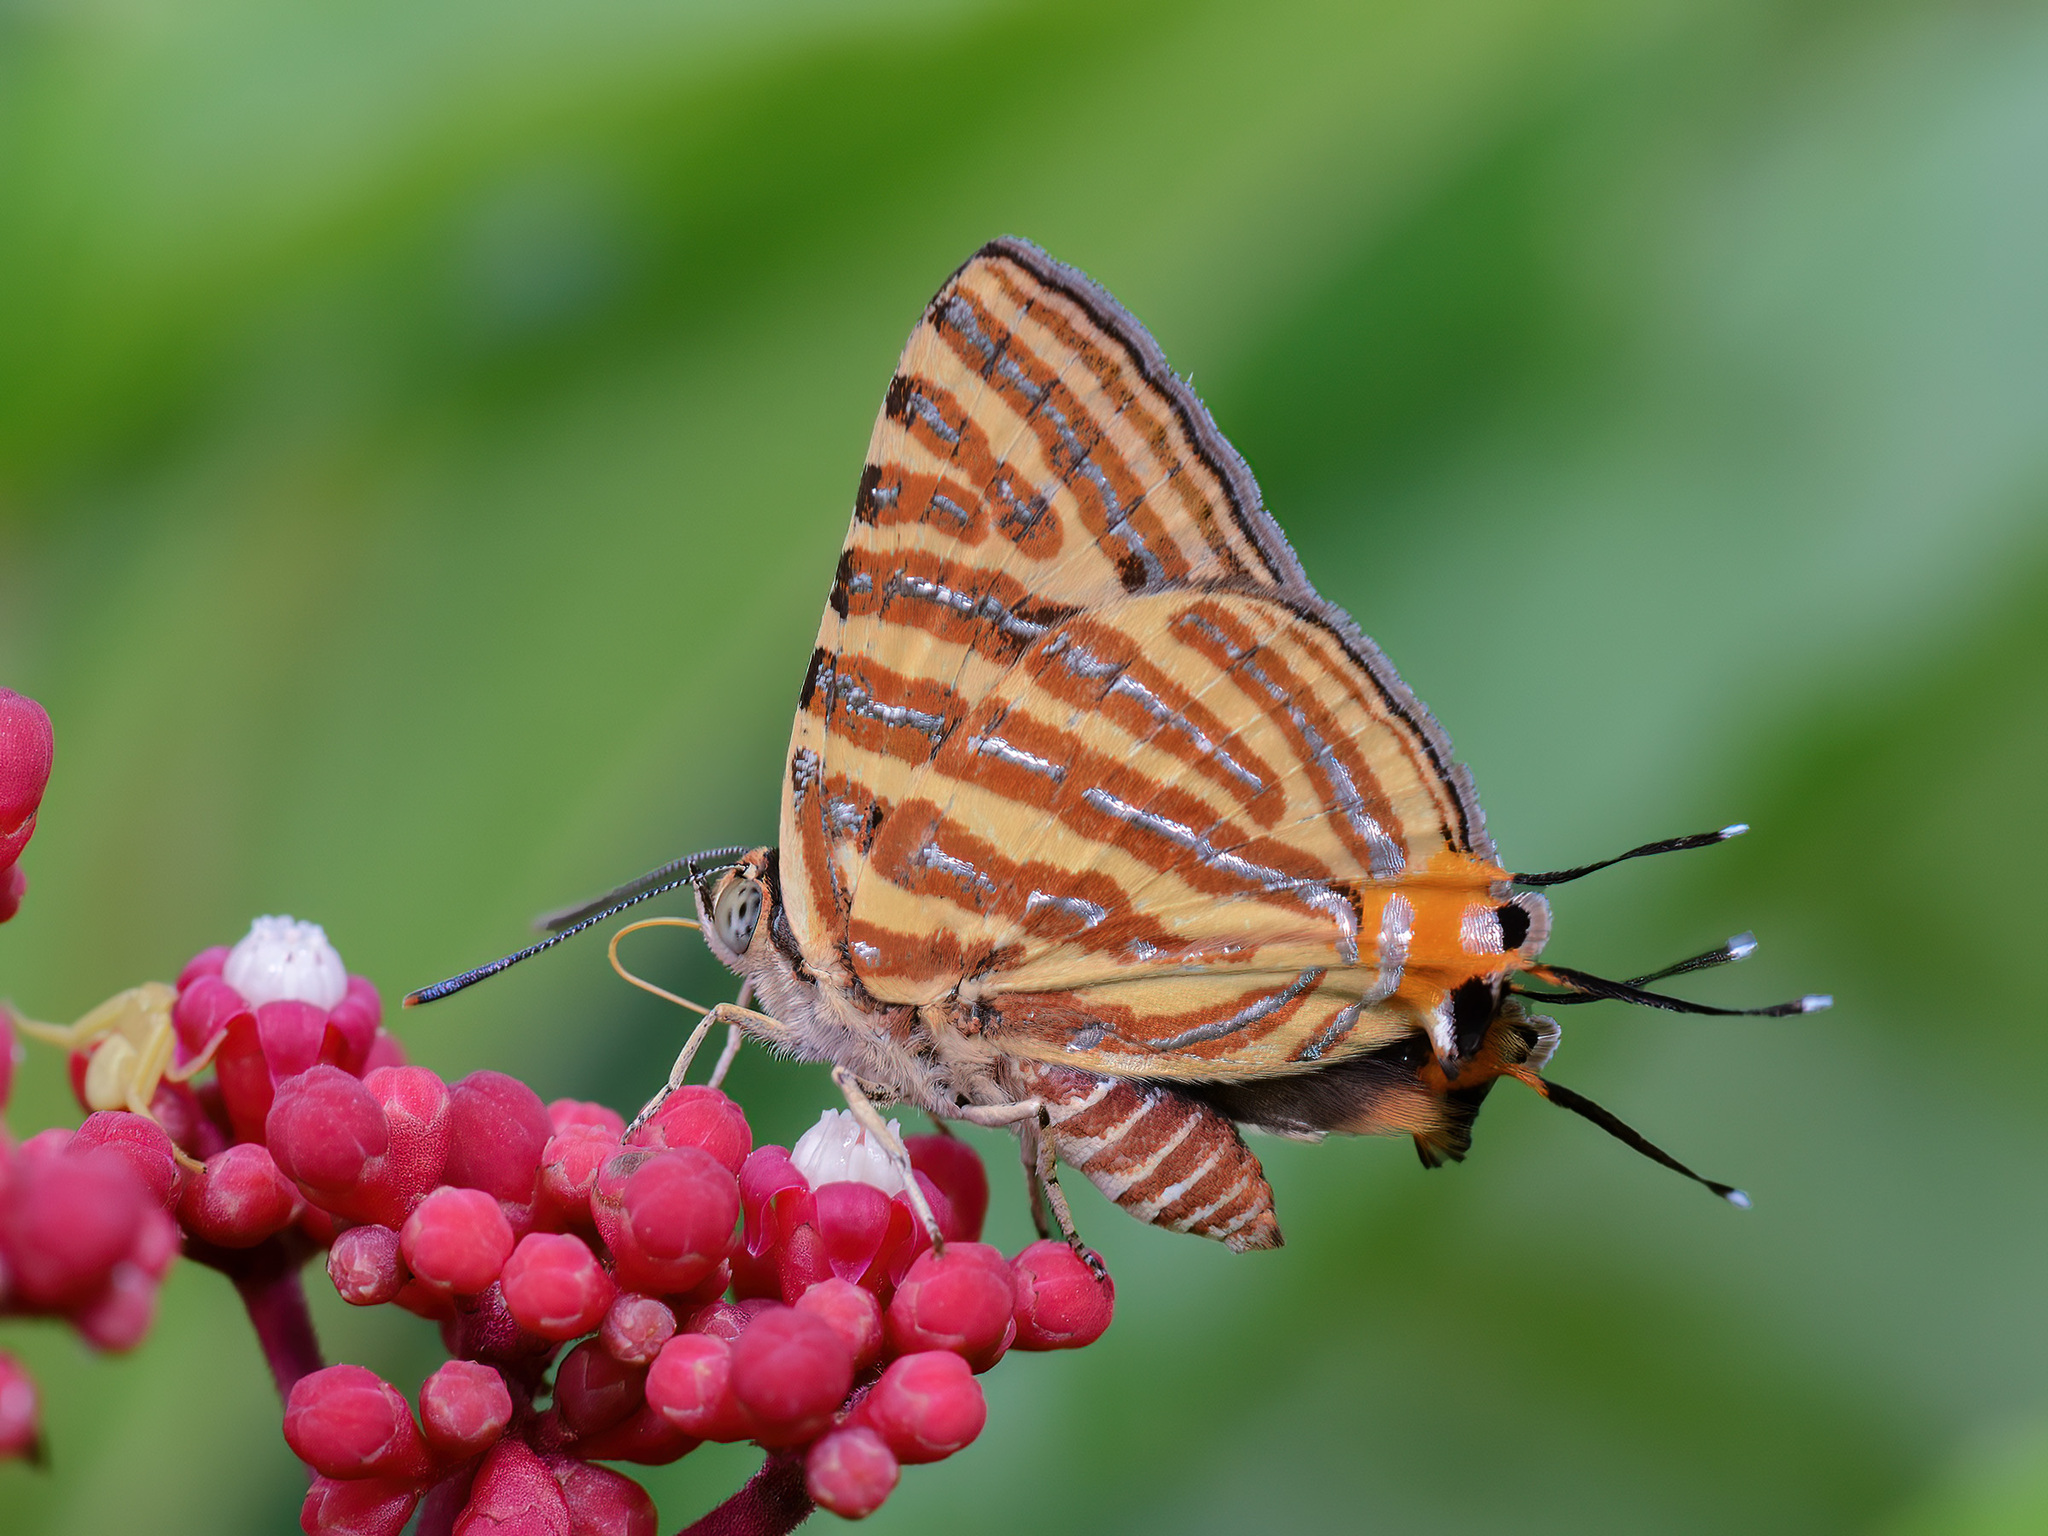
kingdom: Animalia
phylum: Arthropoda
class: Insecta
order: Lepidoptera
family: Lycaenidae
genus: Cigaritis
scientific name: Cigaritis lohita
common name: Long-banded silverline
